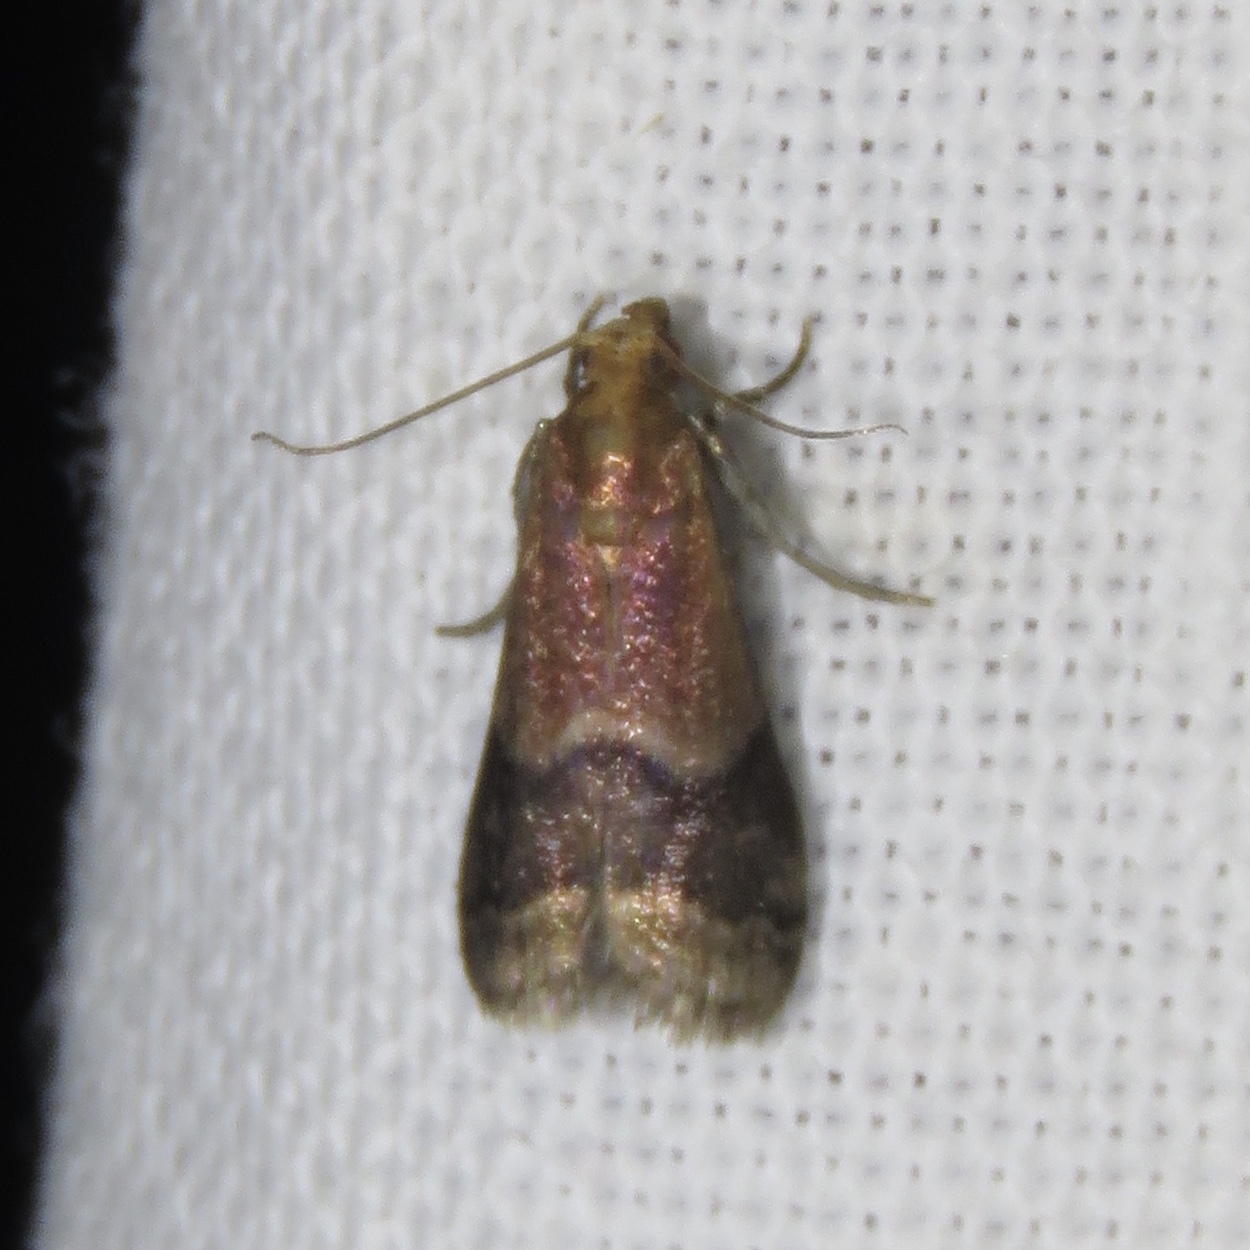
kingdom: Animalia
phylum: Arthropoda
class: Insecta
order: Lepidoptera
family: Pyralidae
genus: Eulogia
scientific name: Eulogia ochrifrontella
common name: Broad-banded eulogia moth
